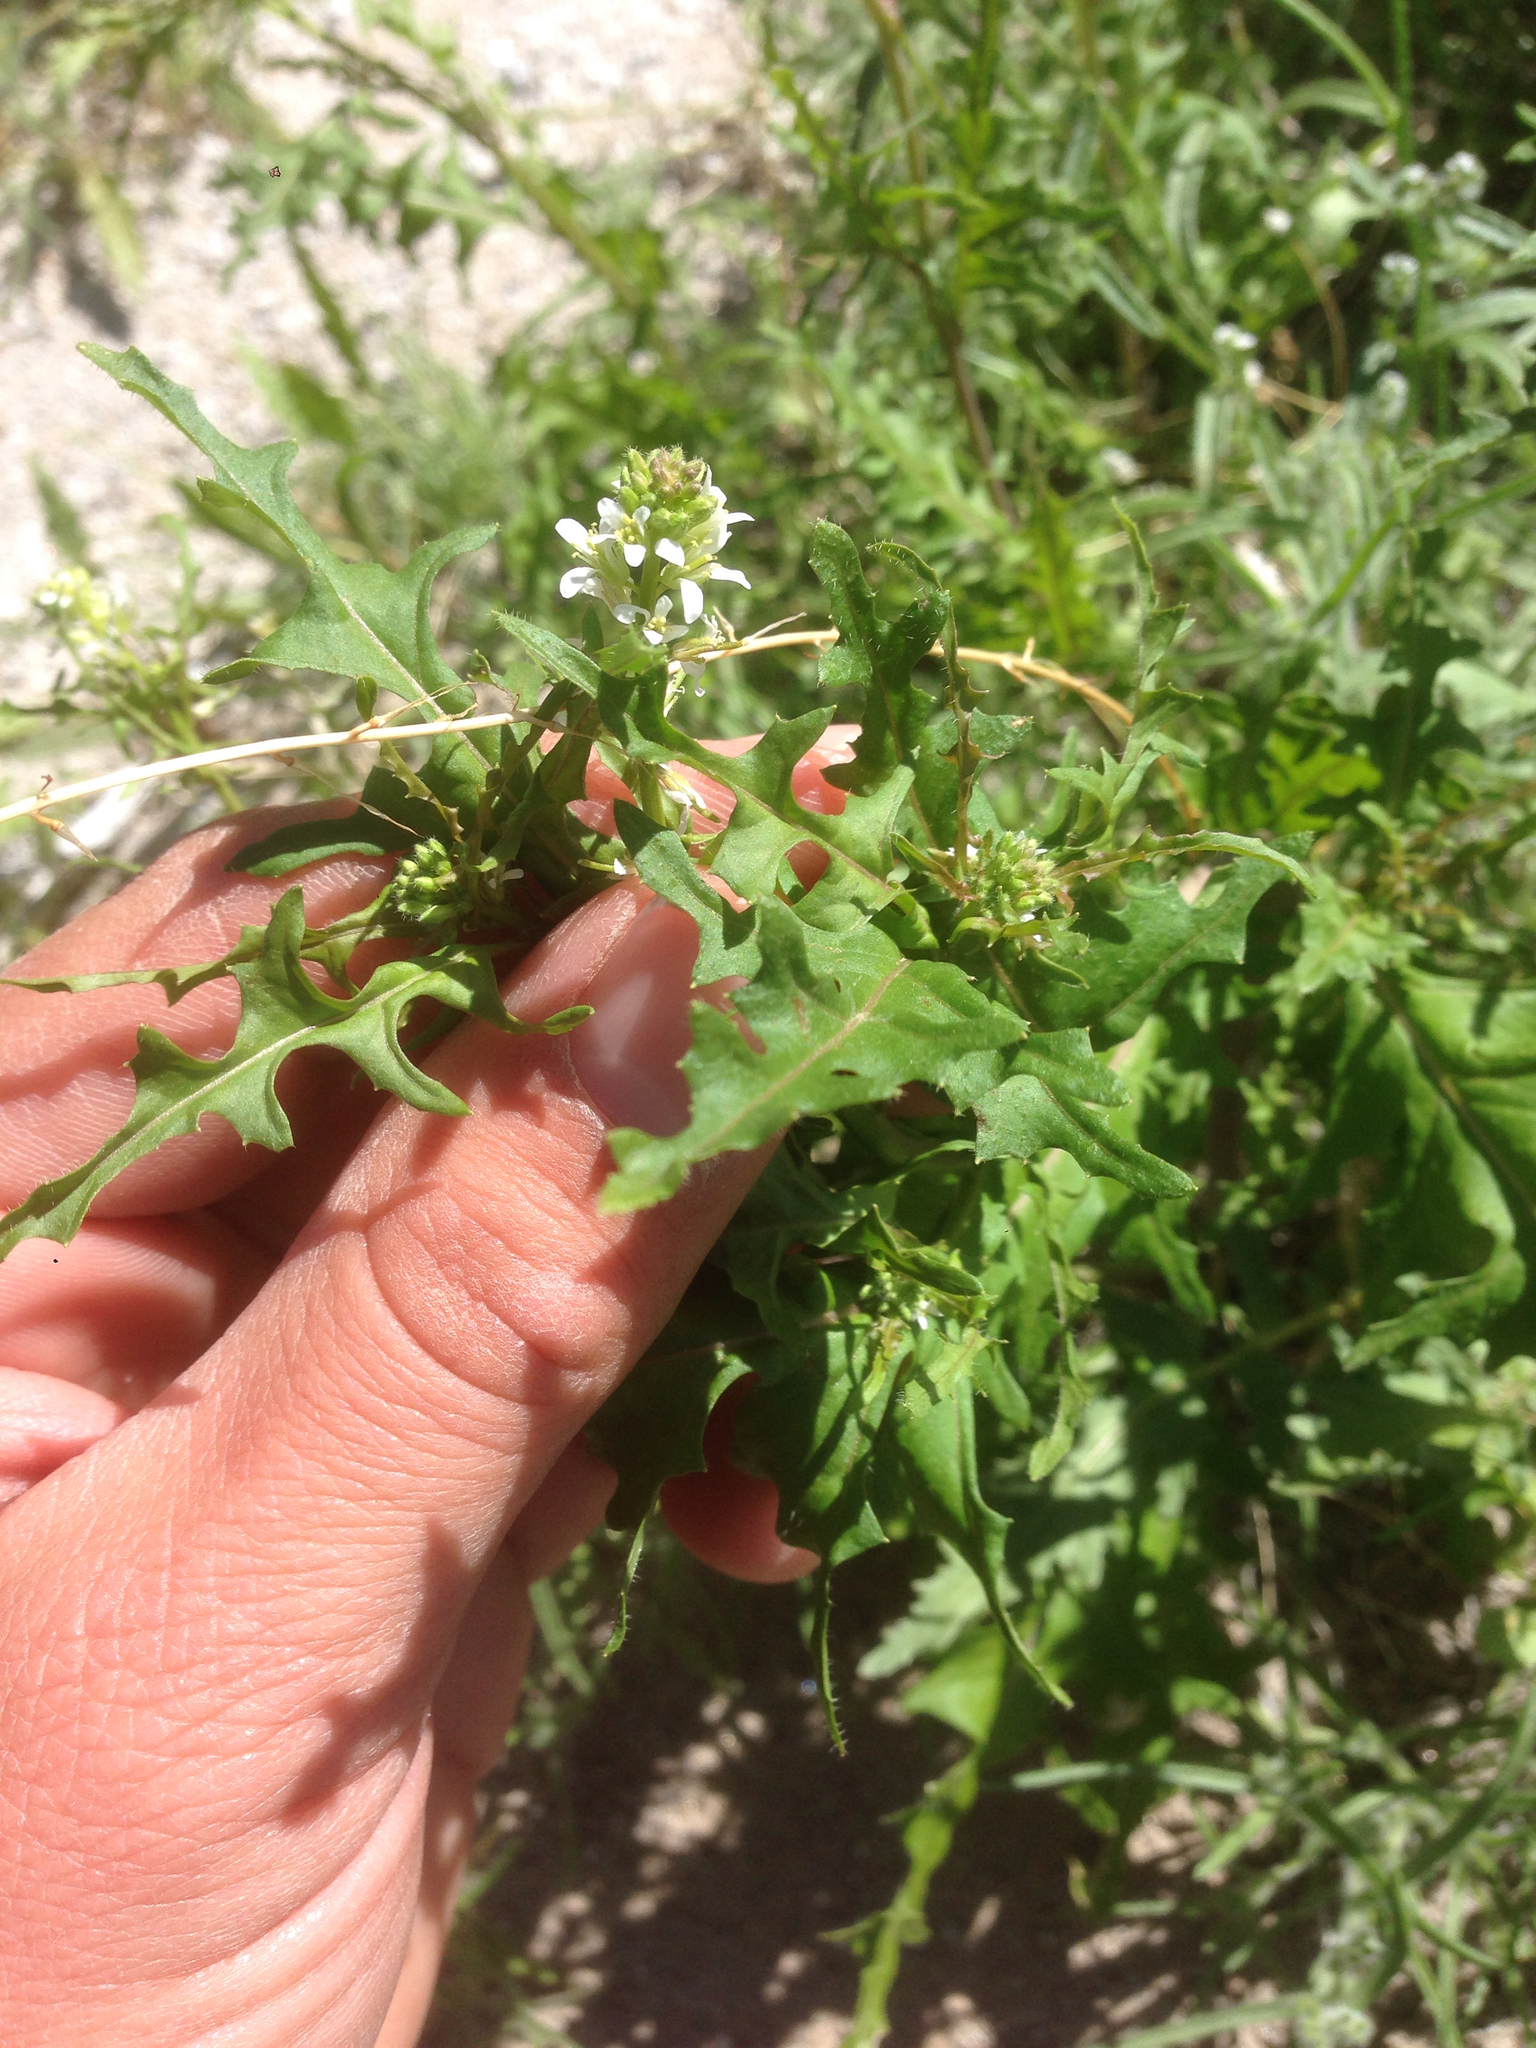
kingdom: Plantae
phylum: Tracheophyta
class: Magnoliopsida
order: Brassicales
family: Brassicaceae
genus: Streptanthus
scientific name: Streptanthus lasiophyllus
